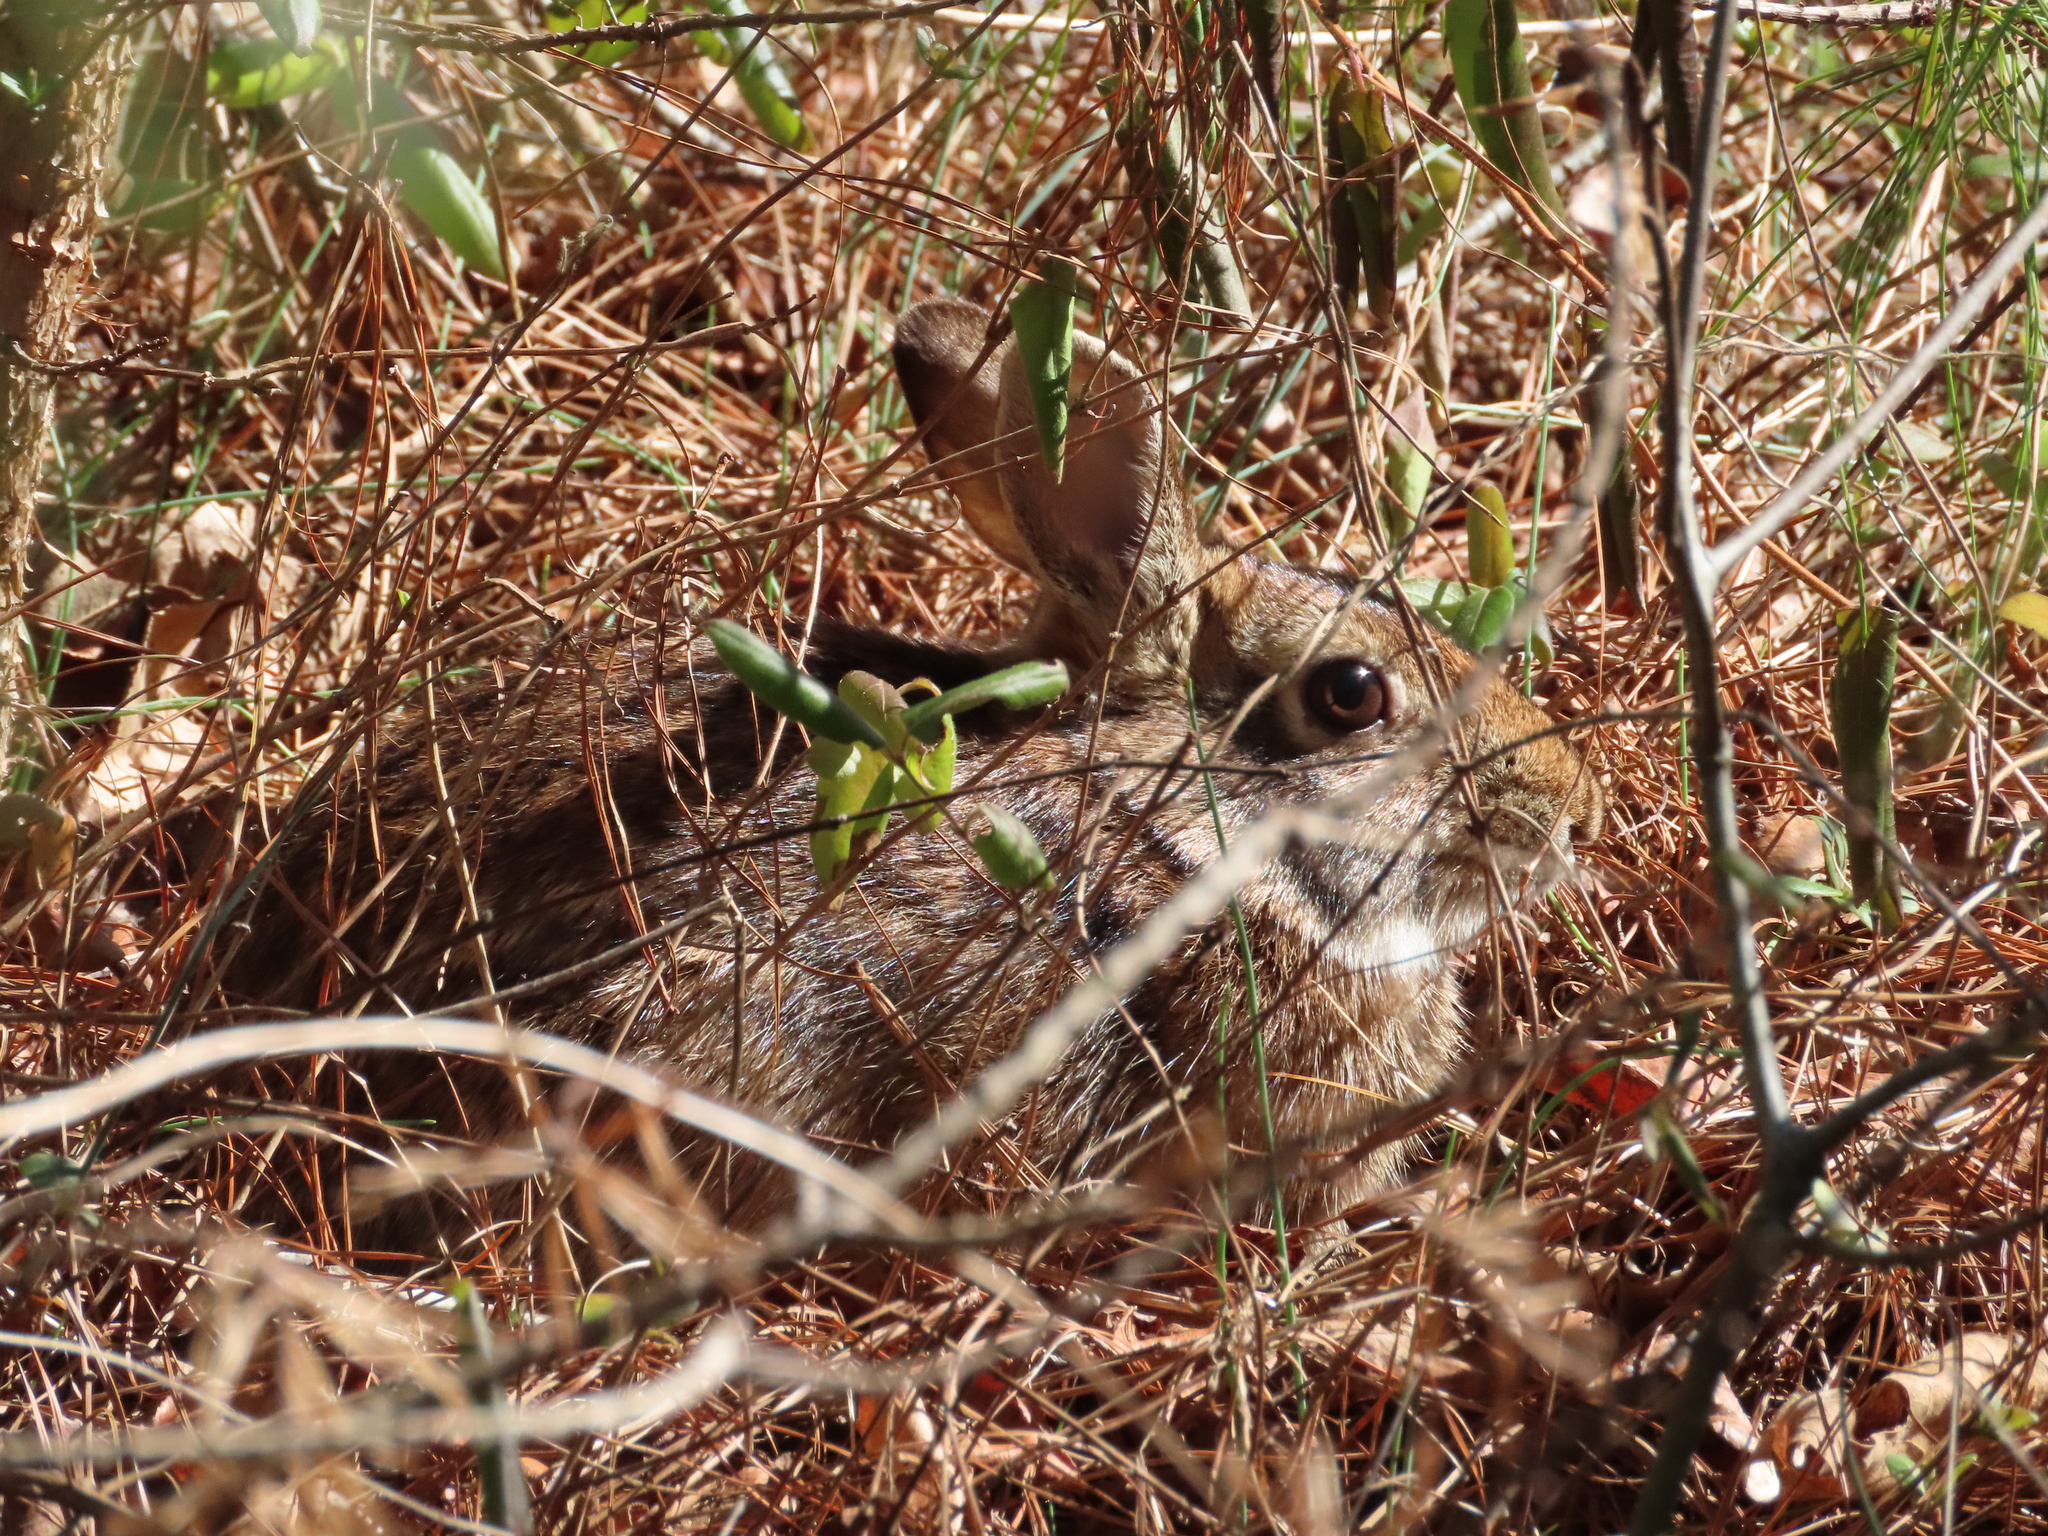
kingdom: Animalia
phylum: Chordata
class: Mammalia
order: Lagomorpha
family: Leporidae
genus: Sylvilagus
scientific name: Sylvilagus floridanus
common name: Eastern cottontail
